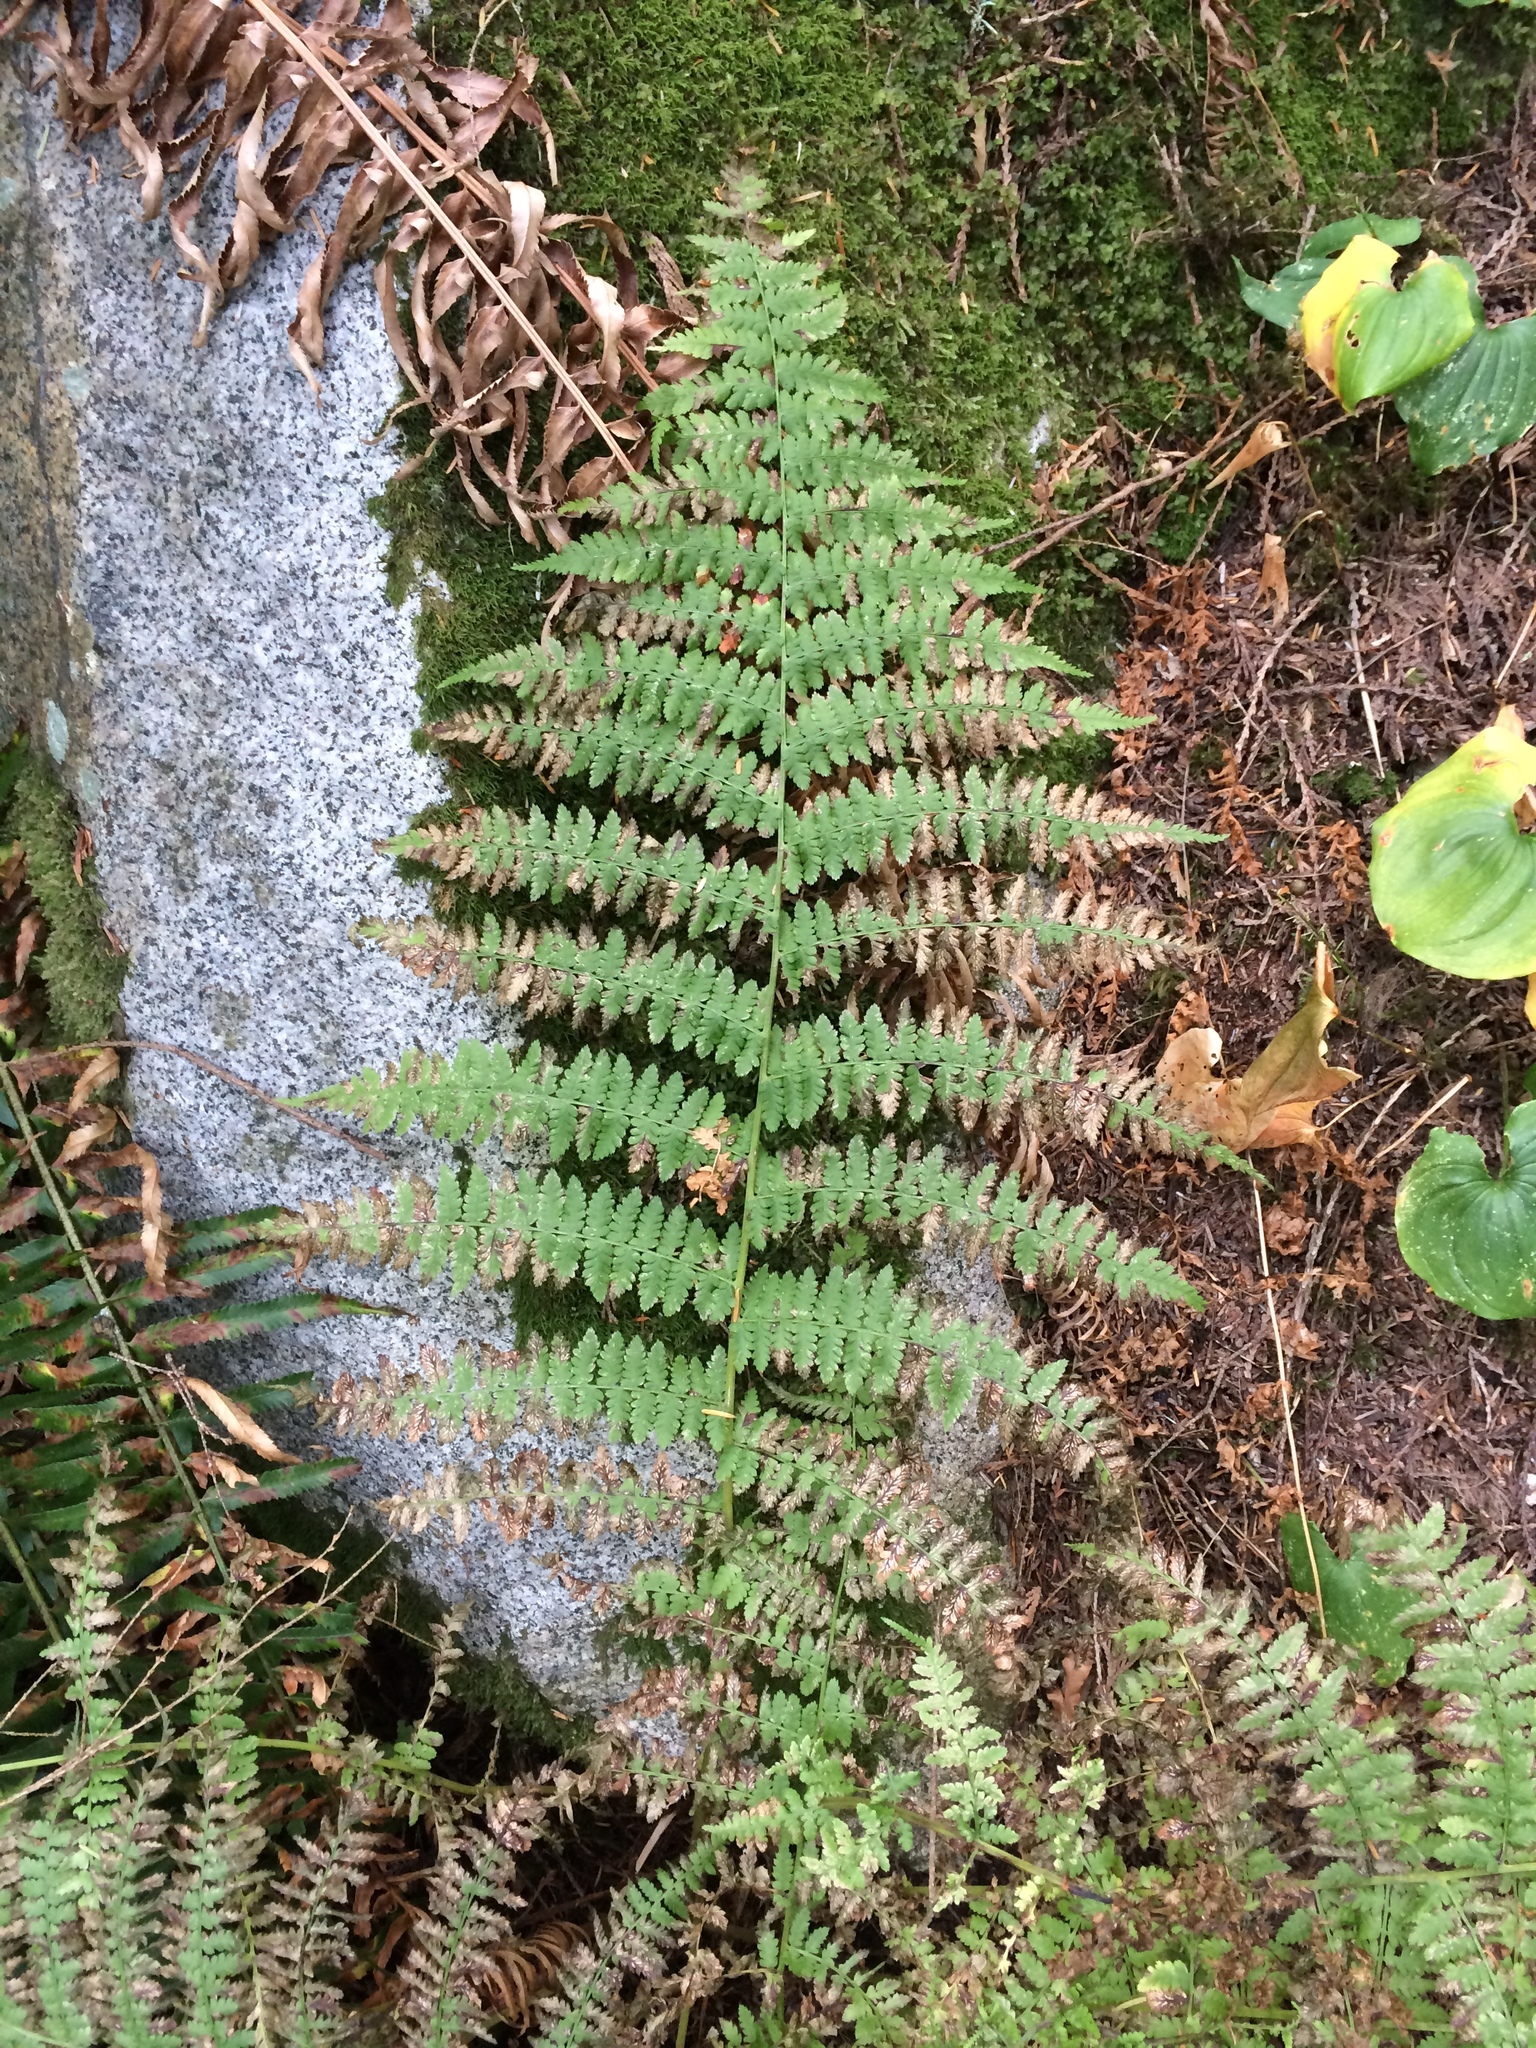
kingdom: Plantae
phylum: Tracheophyta
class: Polypodiopsida
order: Polypodiales
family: Athyriaceae
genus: Athyrium
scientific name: Athyrium filix-femina
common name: Lady fern
